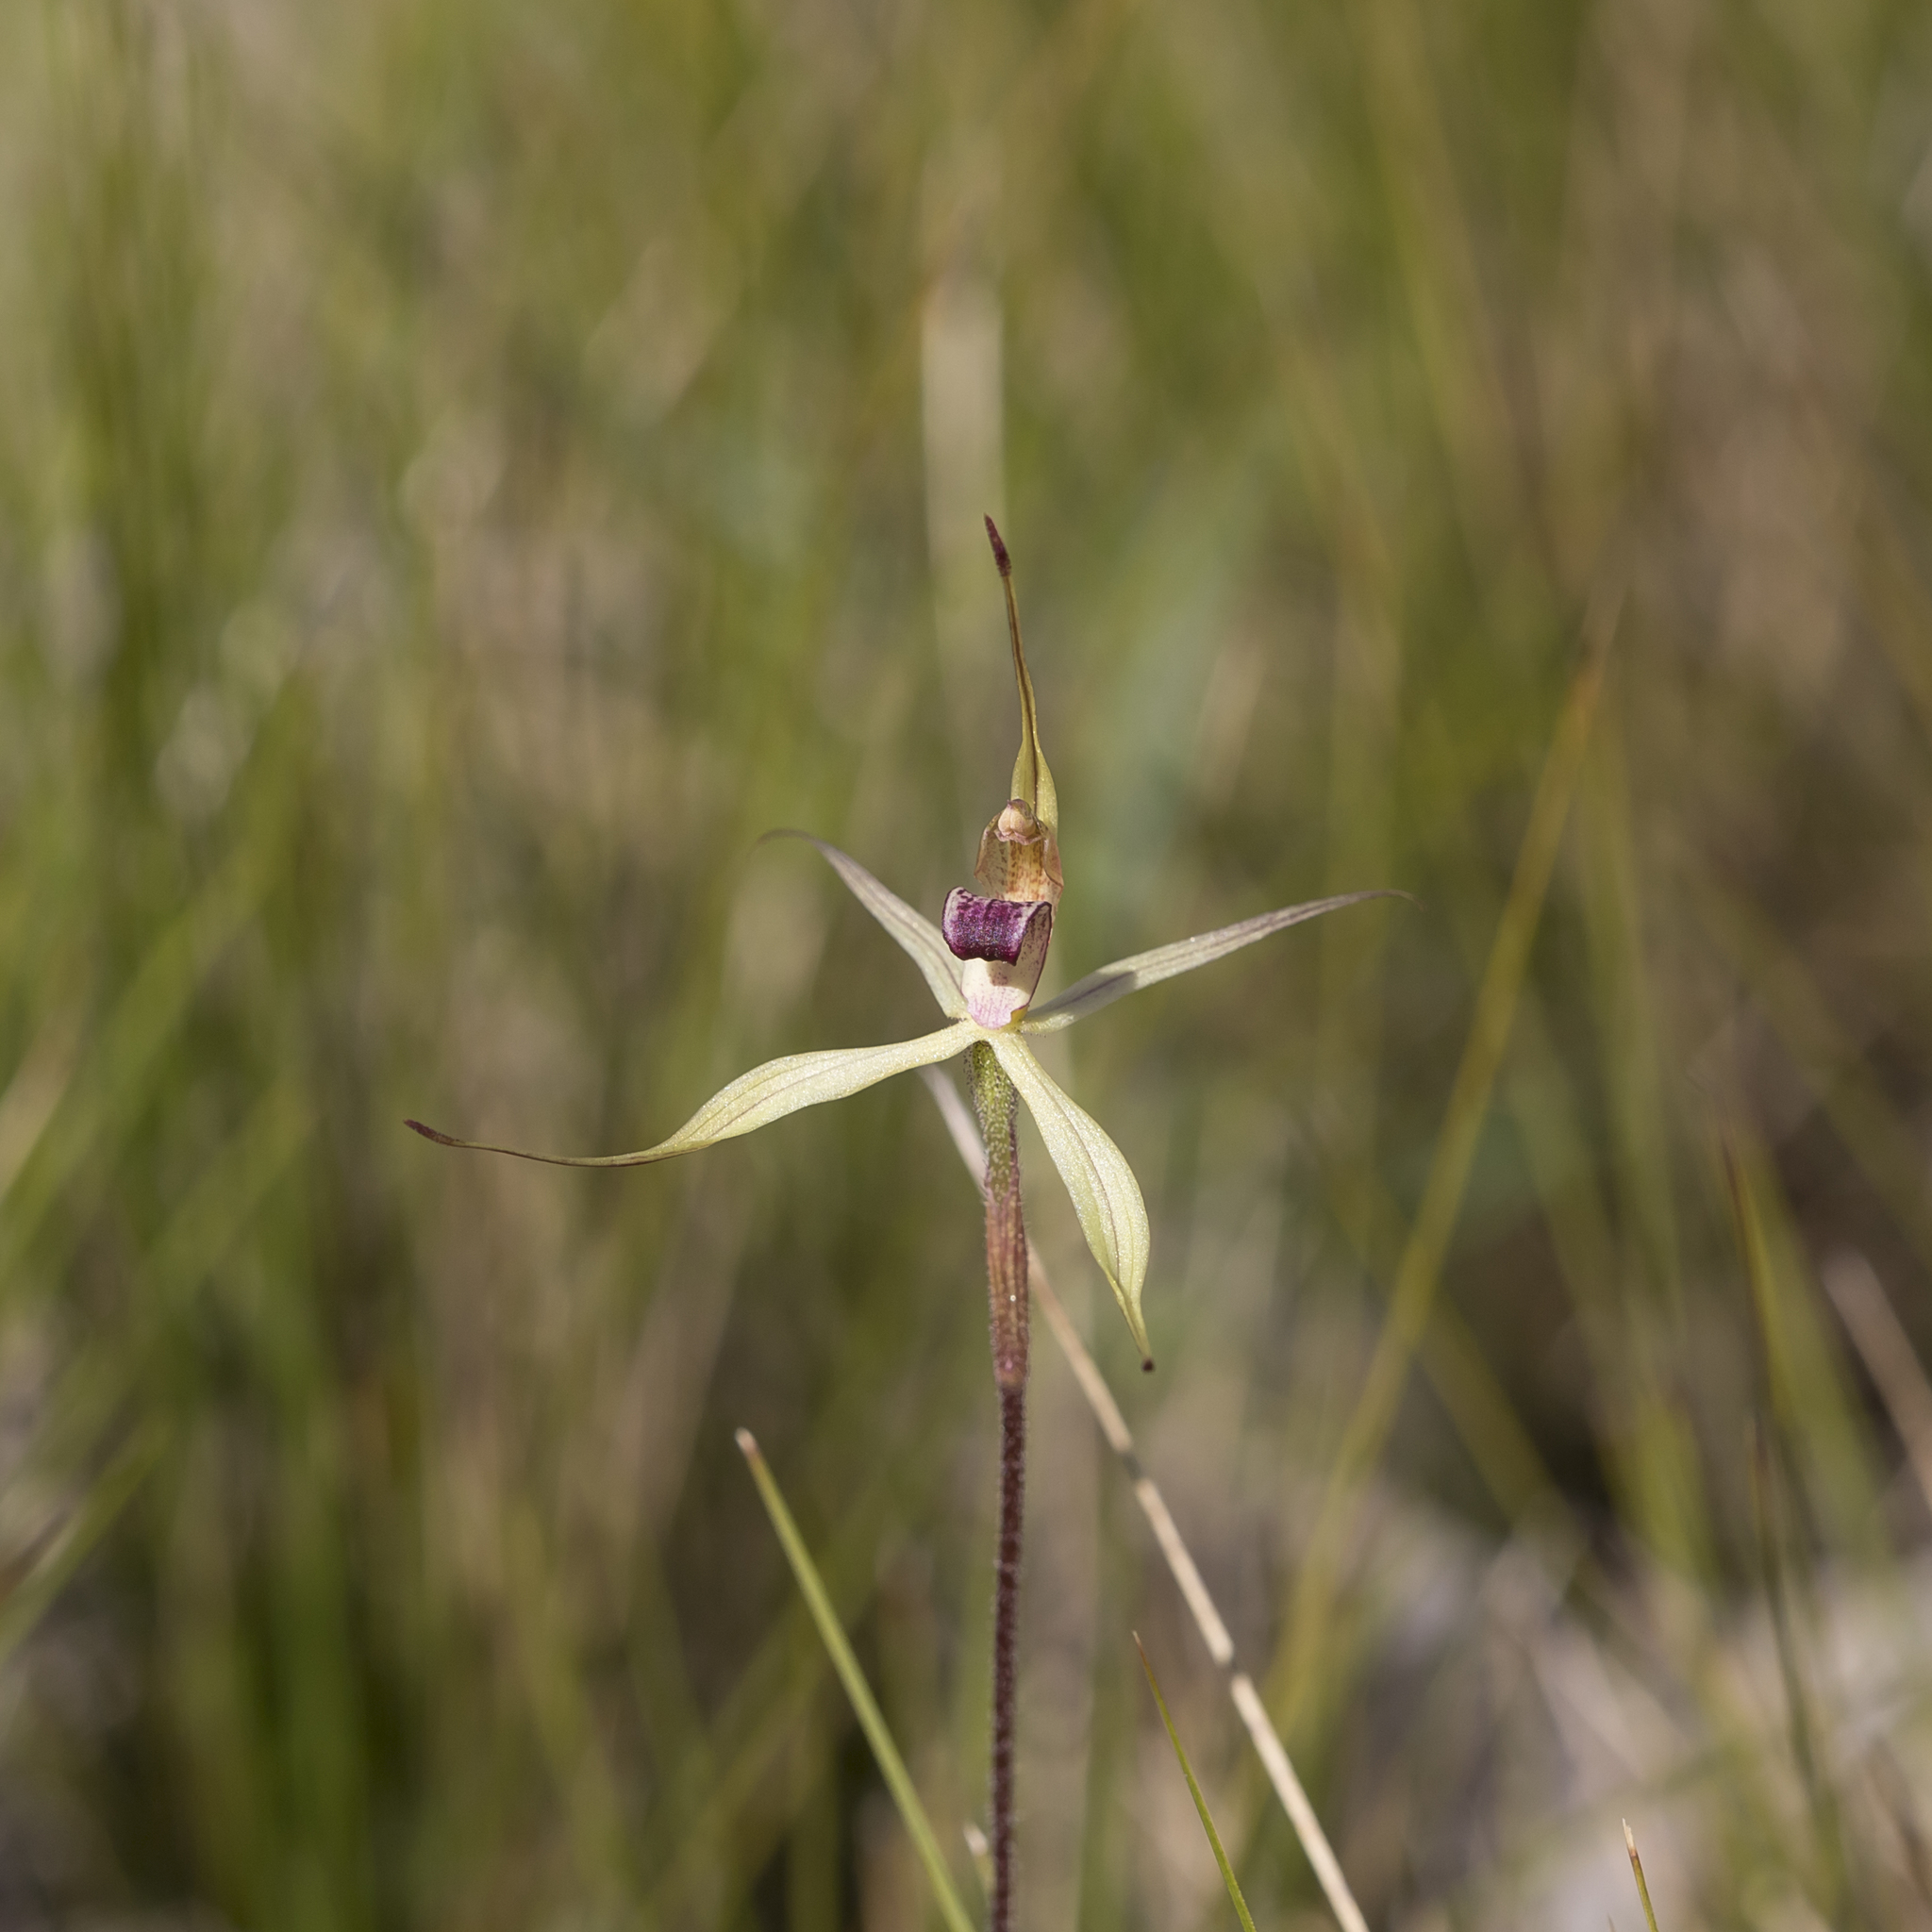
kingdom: Plantae
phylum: Tracheophyta
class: Liliopsida
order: Asparagales
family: Orchidaceae
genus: Caladenia
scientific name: Caladenia leptochila
